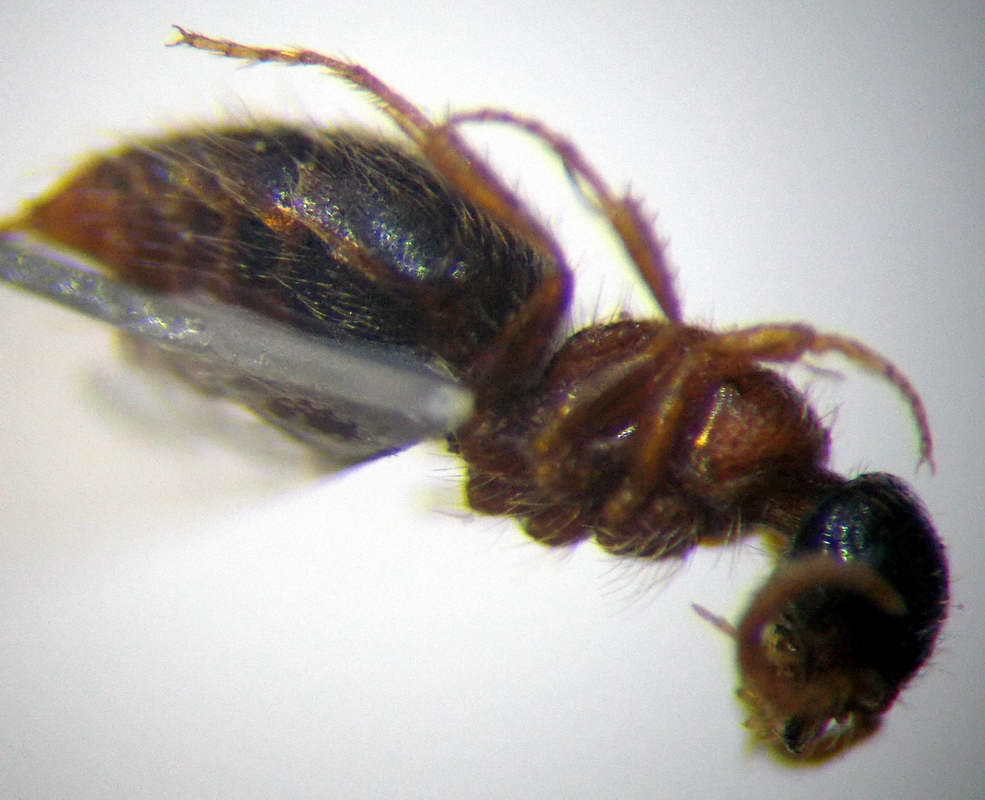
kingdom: Animalia
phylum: Arthropoda
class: Insecta
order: Hymenoptera
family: Mutillidae
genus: Pseudomyrmosa
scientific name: Pseudomyrmosa minuta
